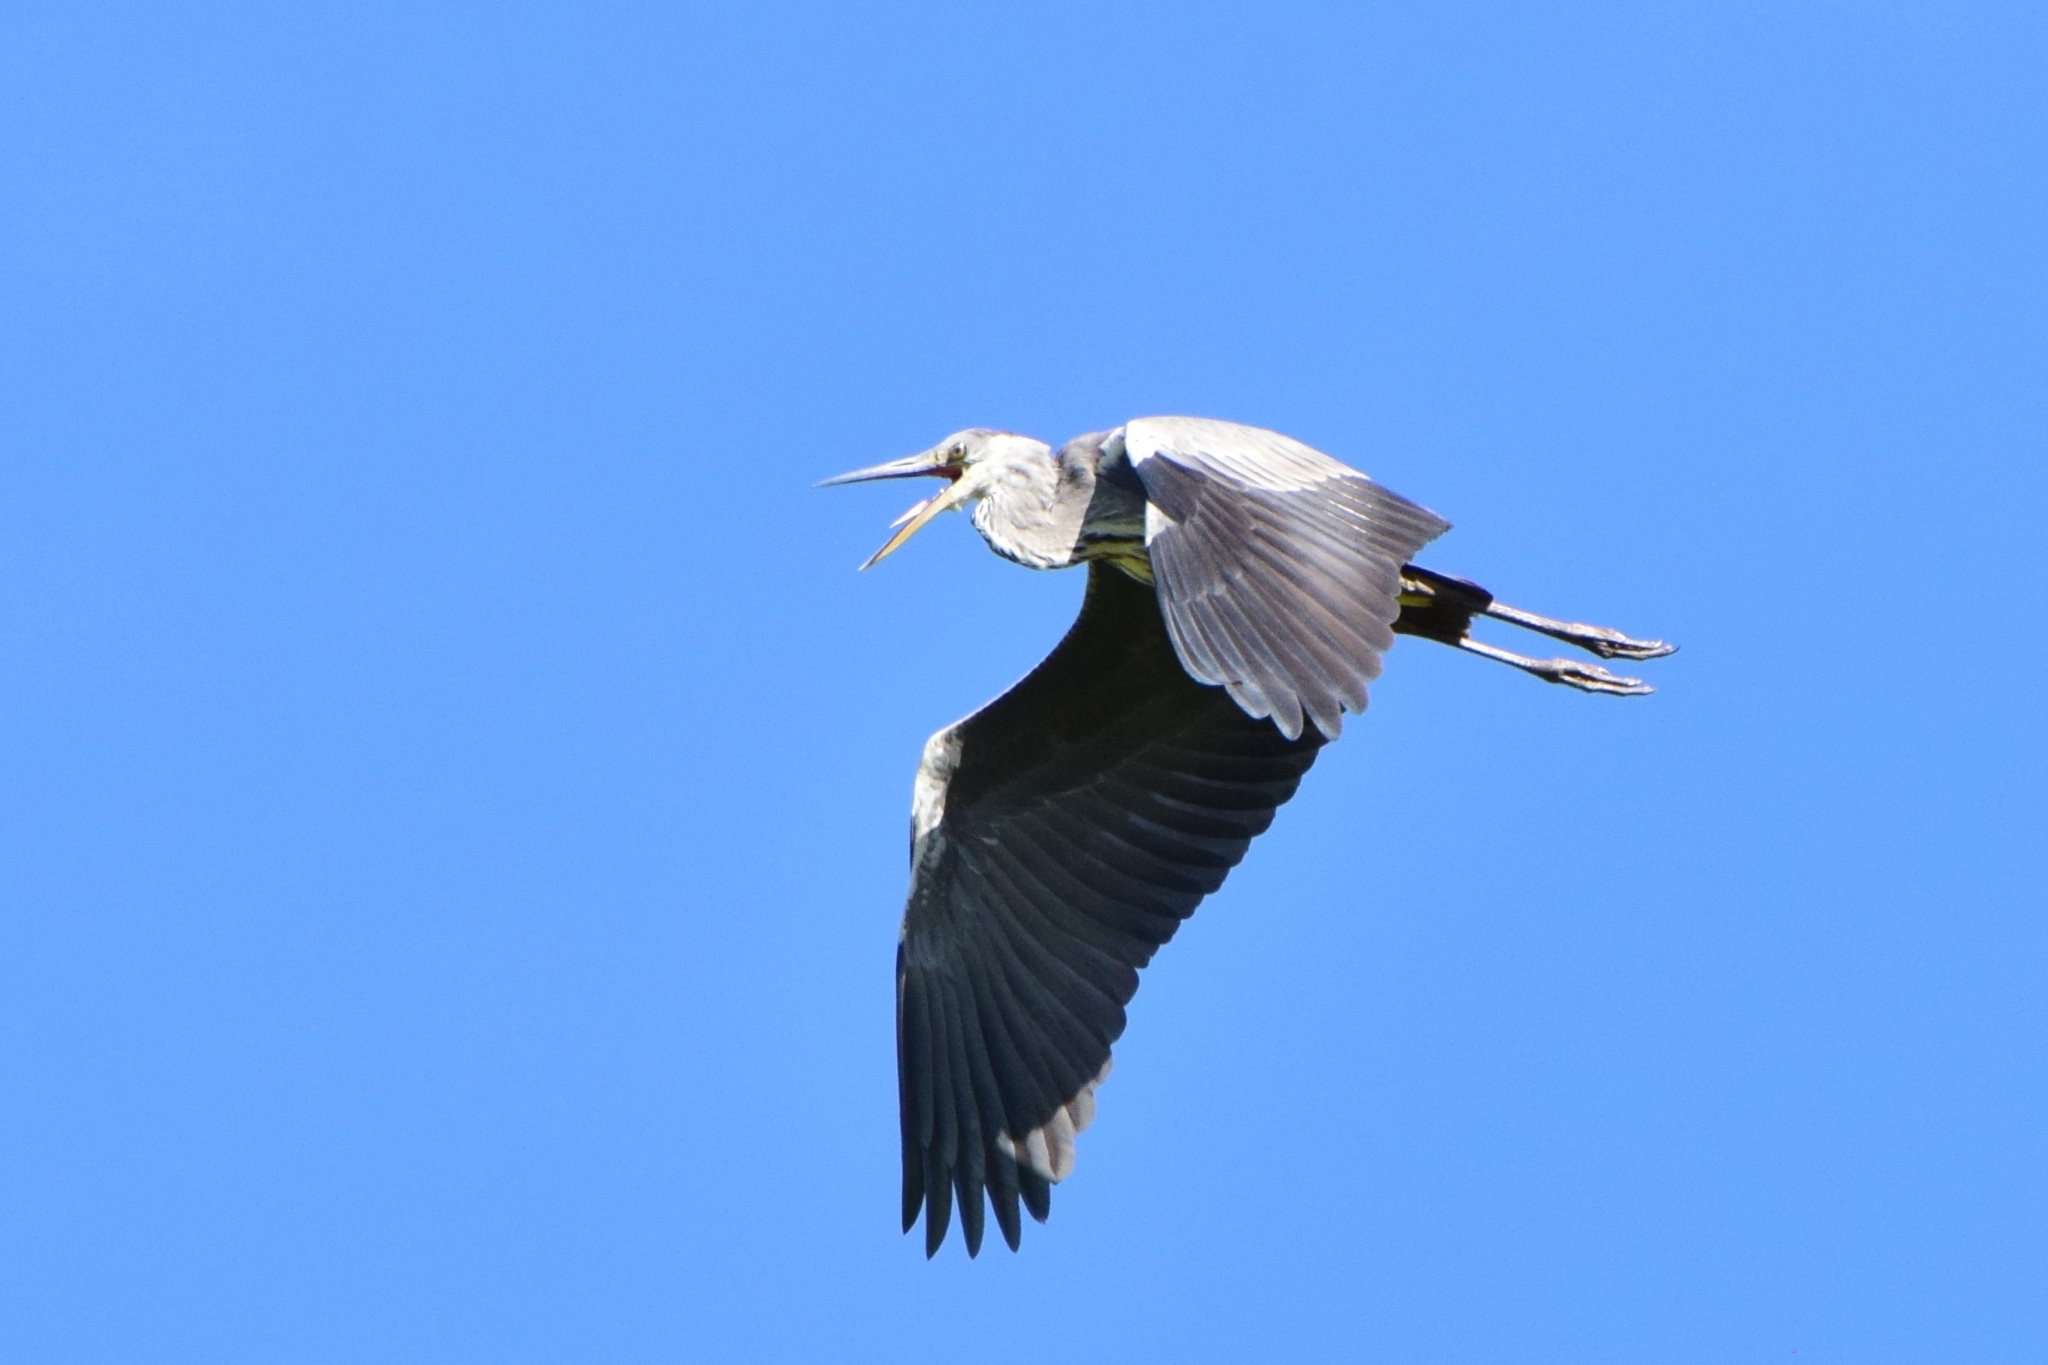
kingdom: Animalia
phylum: Chordata
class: Aves
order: Pelecaniformes
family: Ardeidae
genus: Ardea
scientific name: Ardea cinerea
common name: Grey heron
